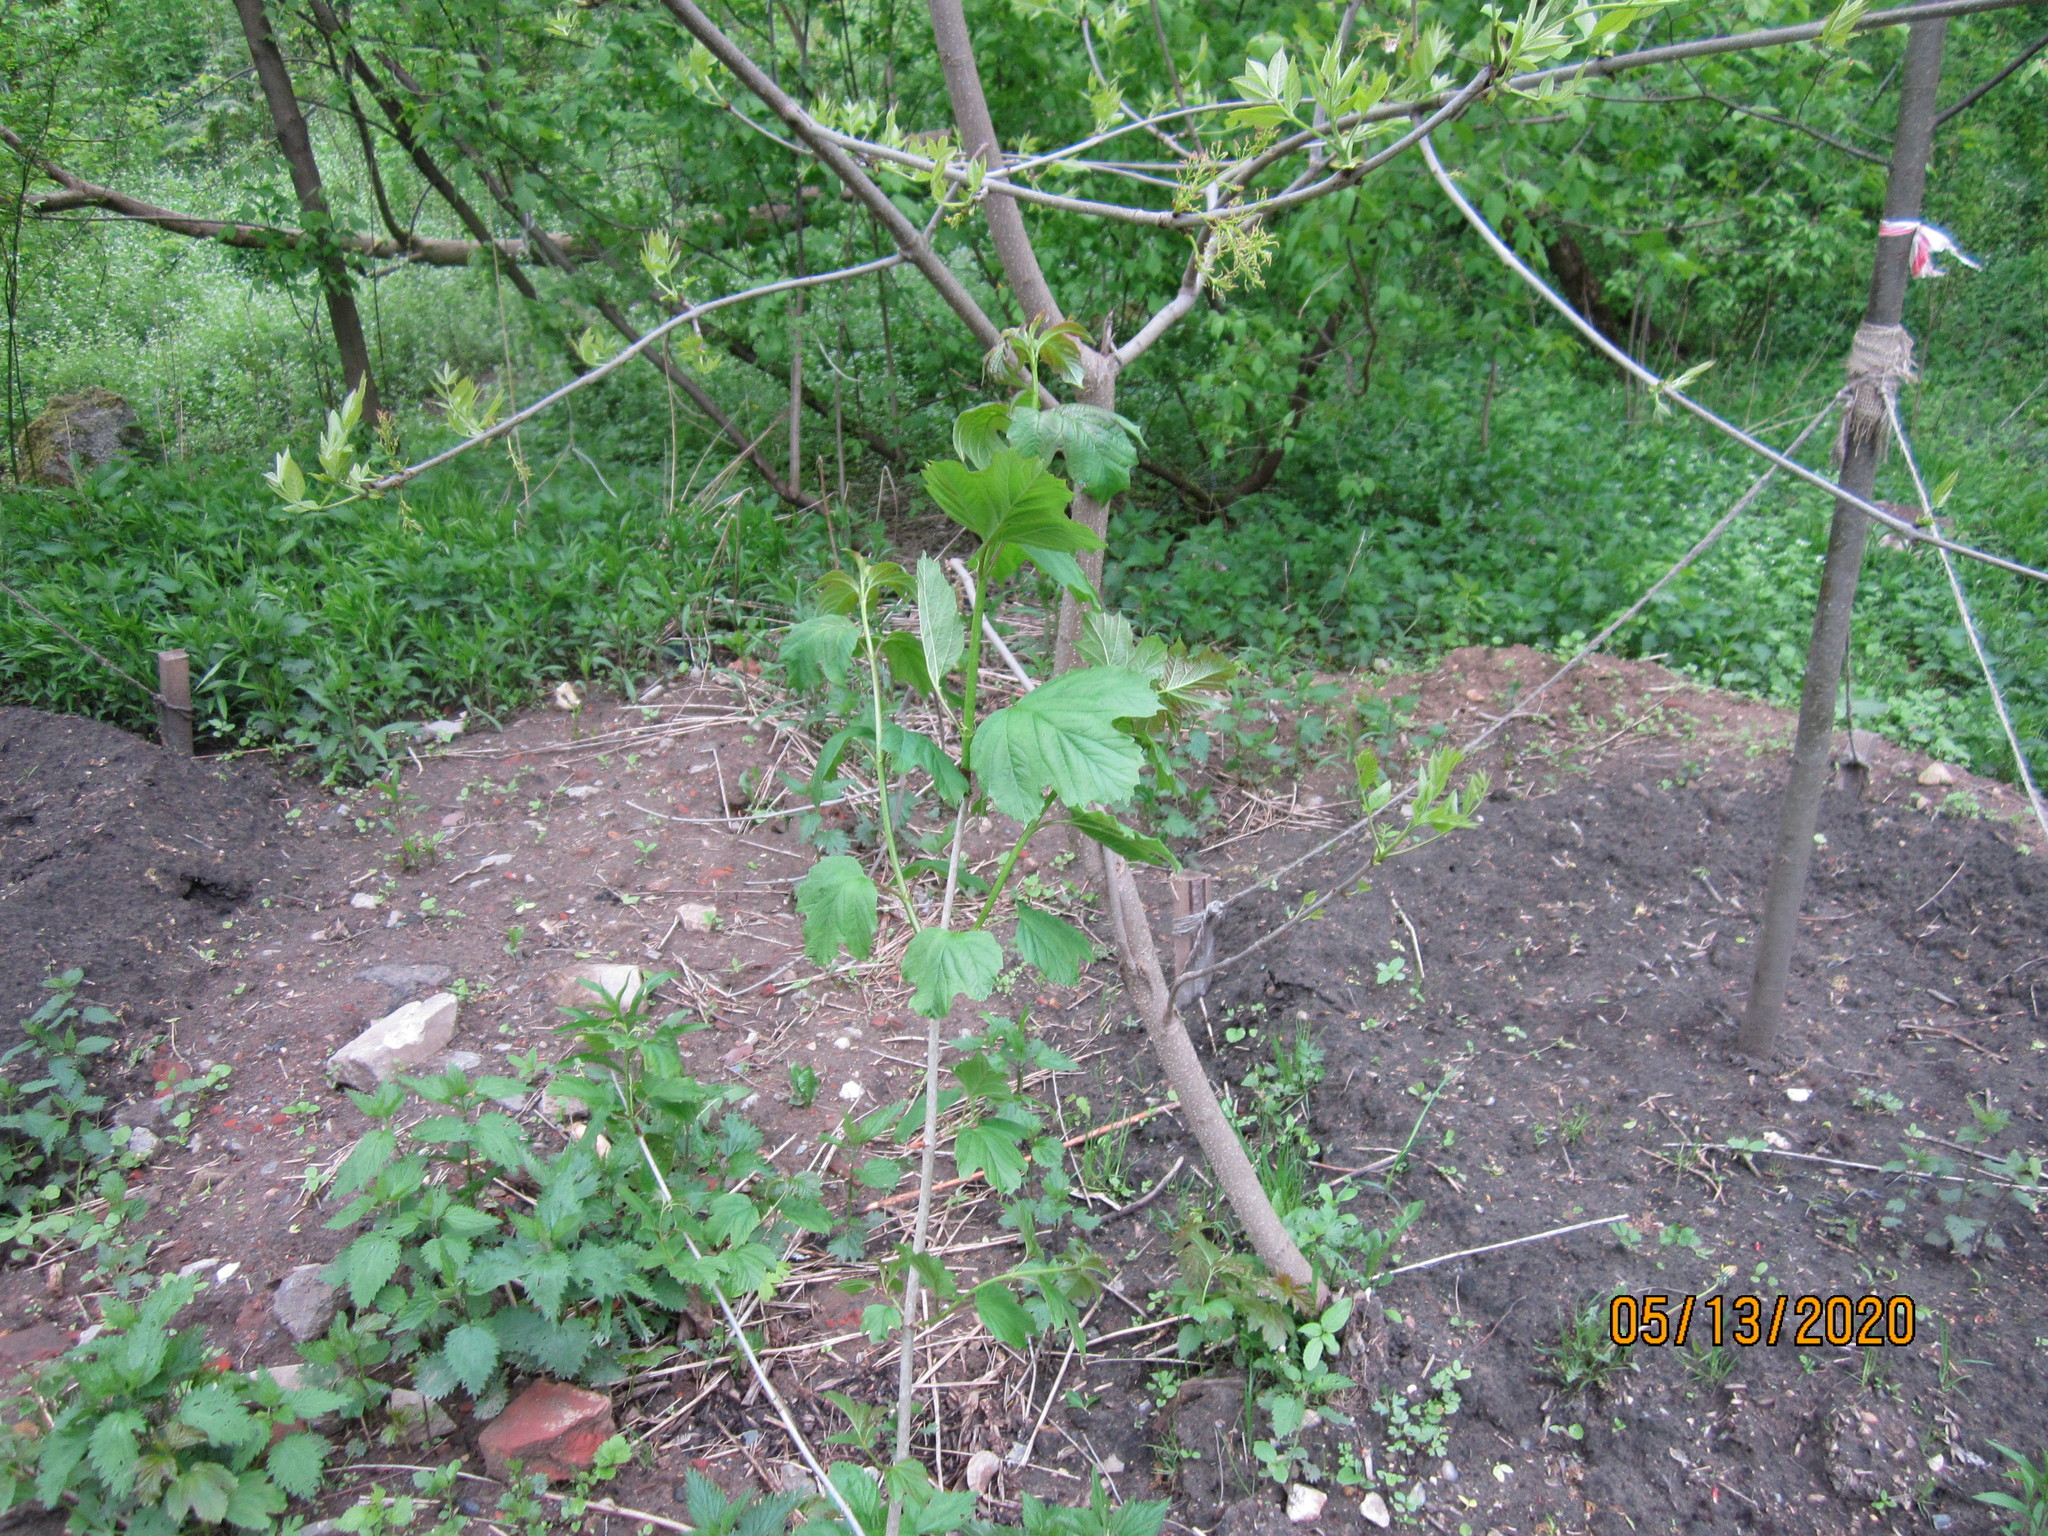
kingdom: Plantae
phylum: Tracheophyta
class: Magnoliopsida
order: Dipsacales
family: Viburnaceae
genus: Viburnum
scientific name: Viburnum opulus
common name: Guelder-rose
